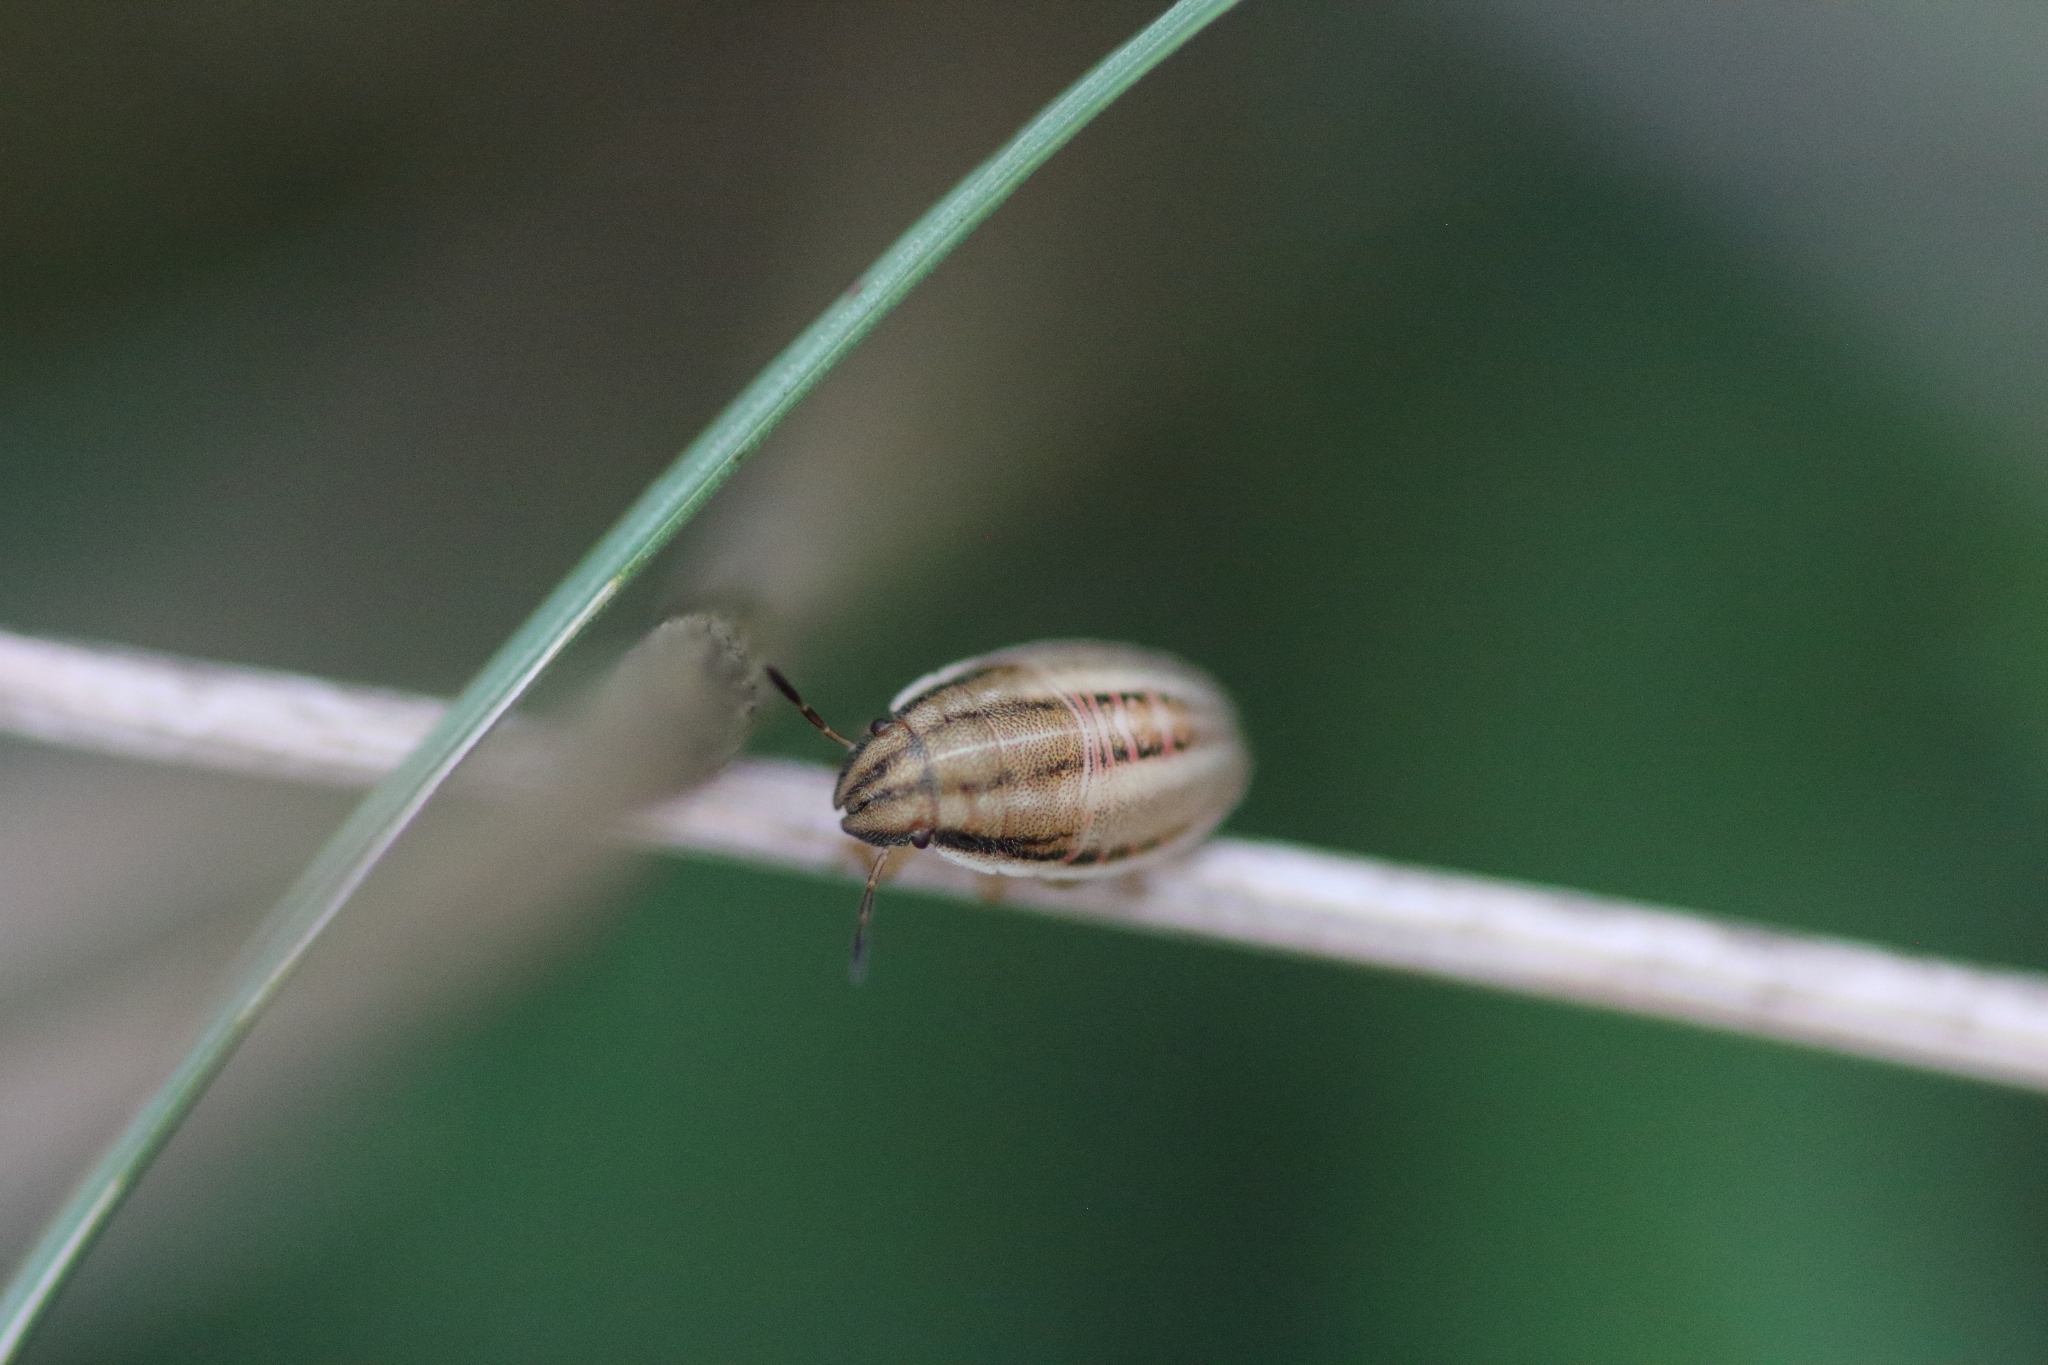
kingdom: Animalia
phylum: Arthropoda
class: Insecta
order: Hemiptera
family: Pentatomidae
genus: Aelia
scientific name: Aelia acuminata
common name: Bishop's mitre
